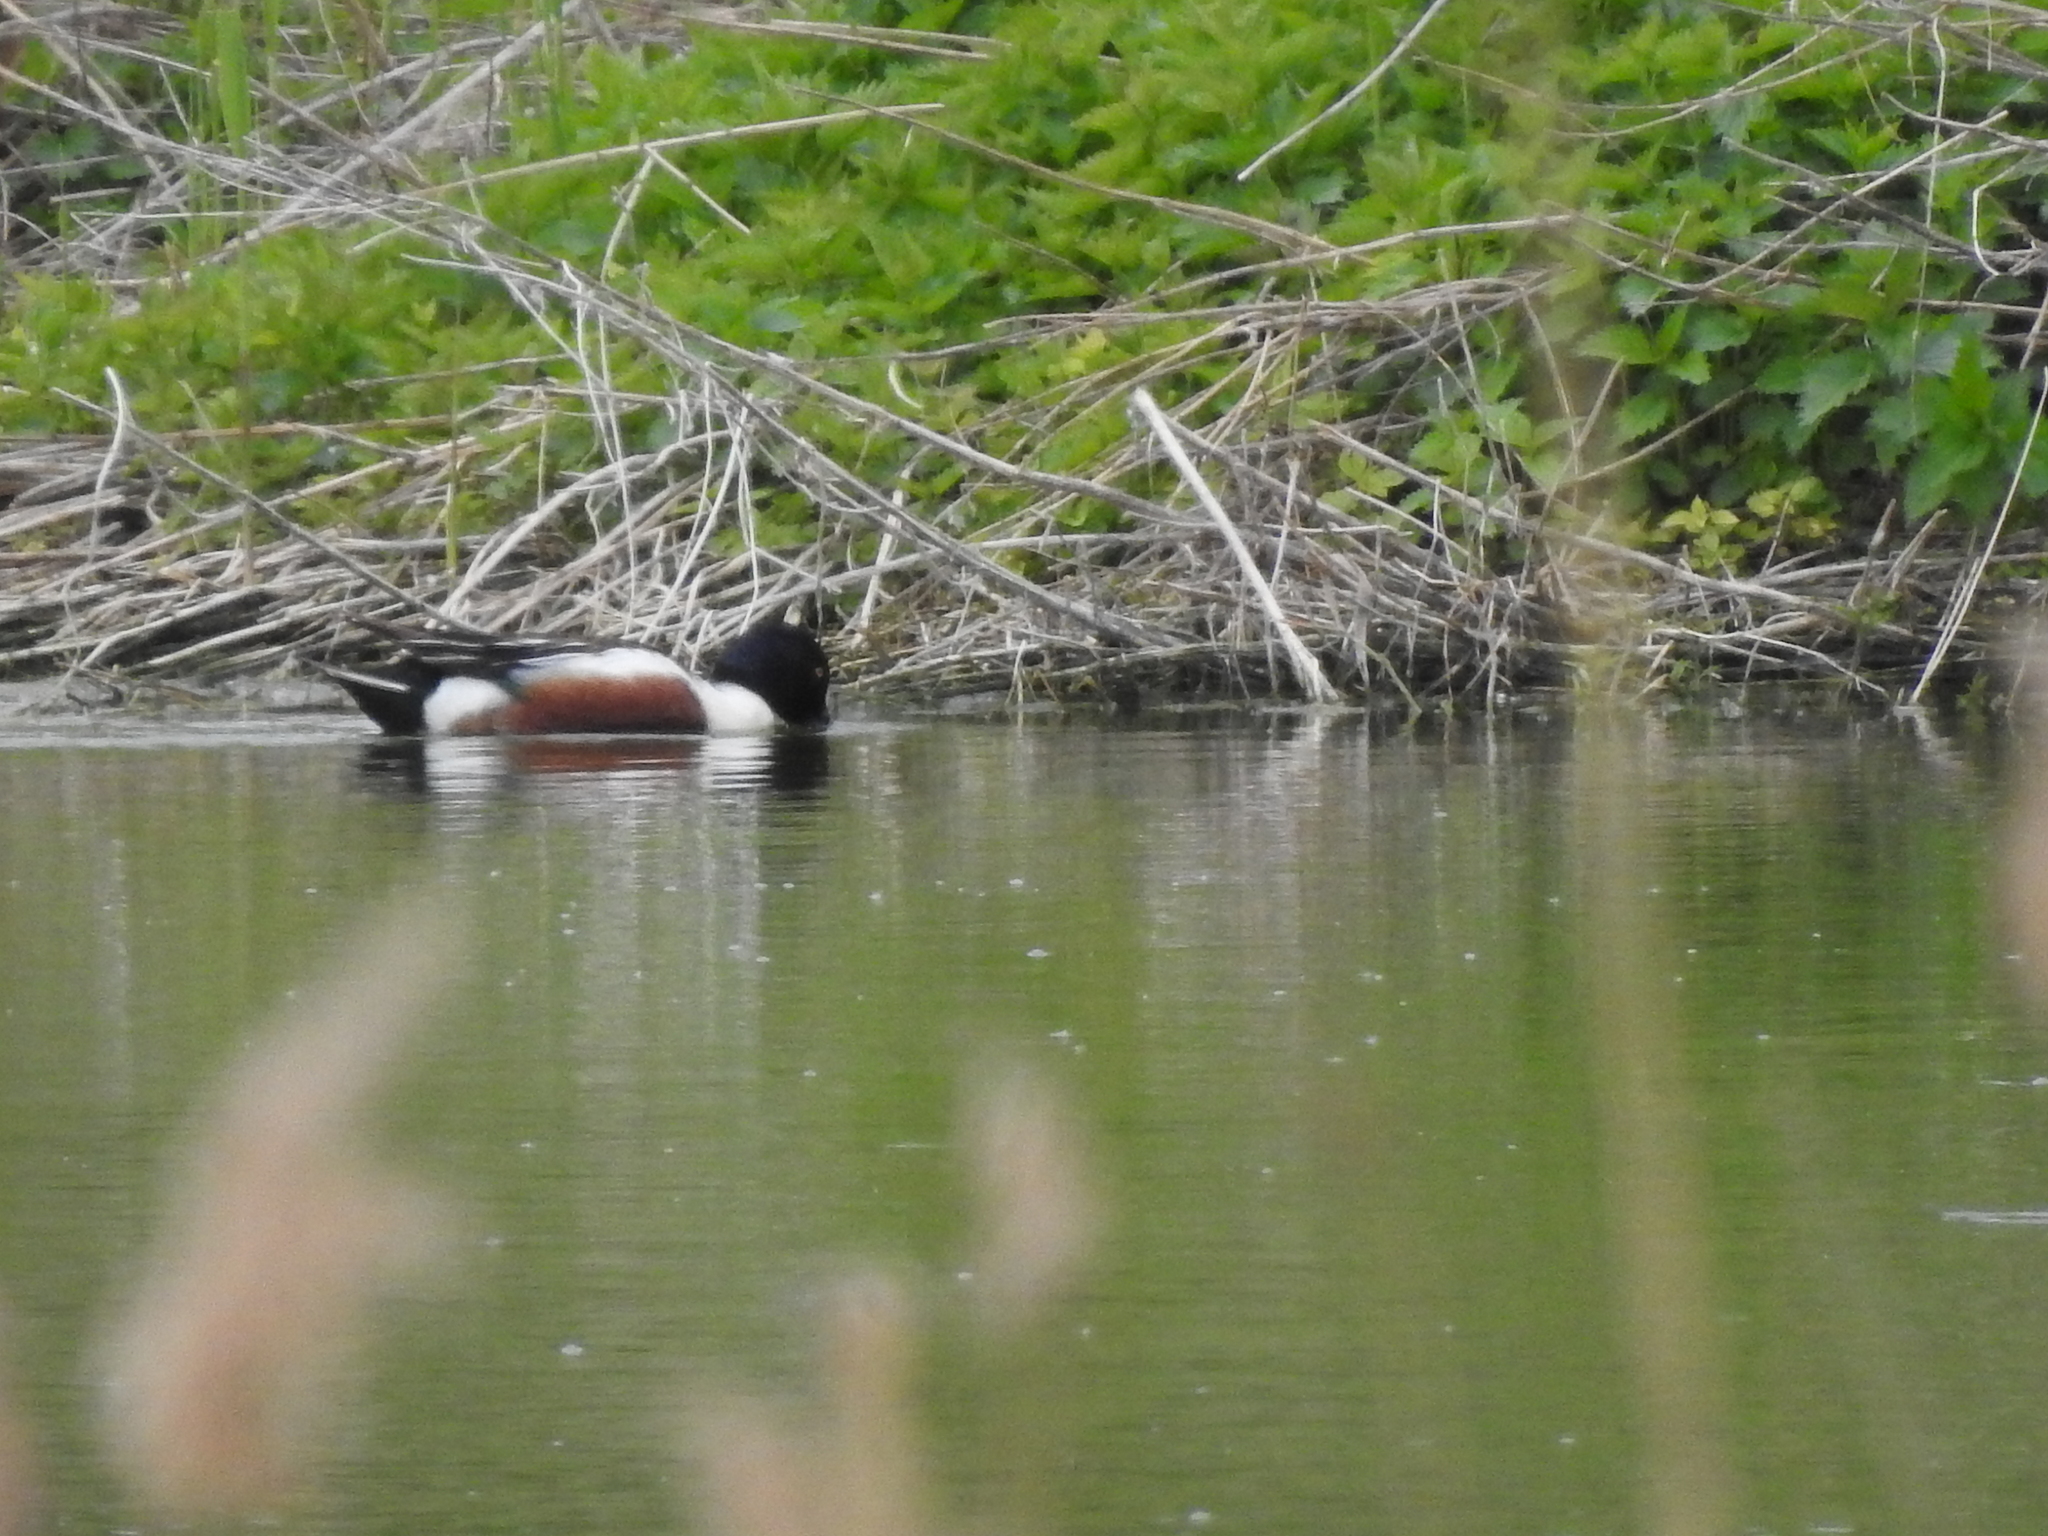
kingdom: Animalia
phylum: Chordata
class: Aves
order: Anseriformes
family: Anatidae
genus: Spatula
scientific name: Spatula clypeata
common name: Northern shoveler
